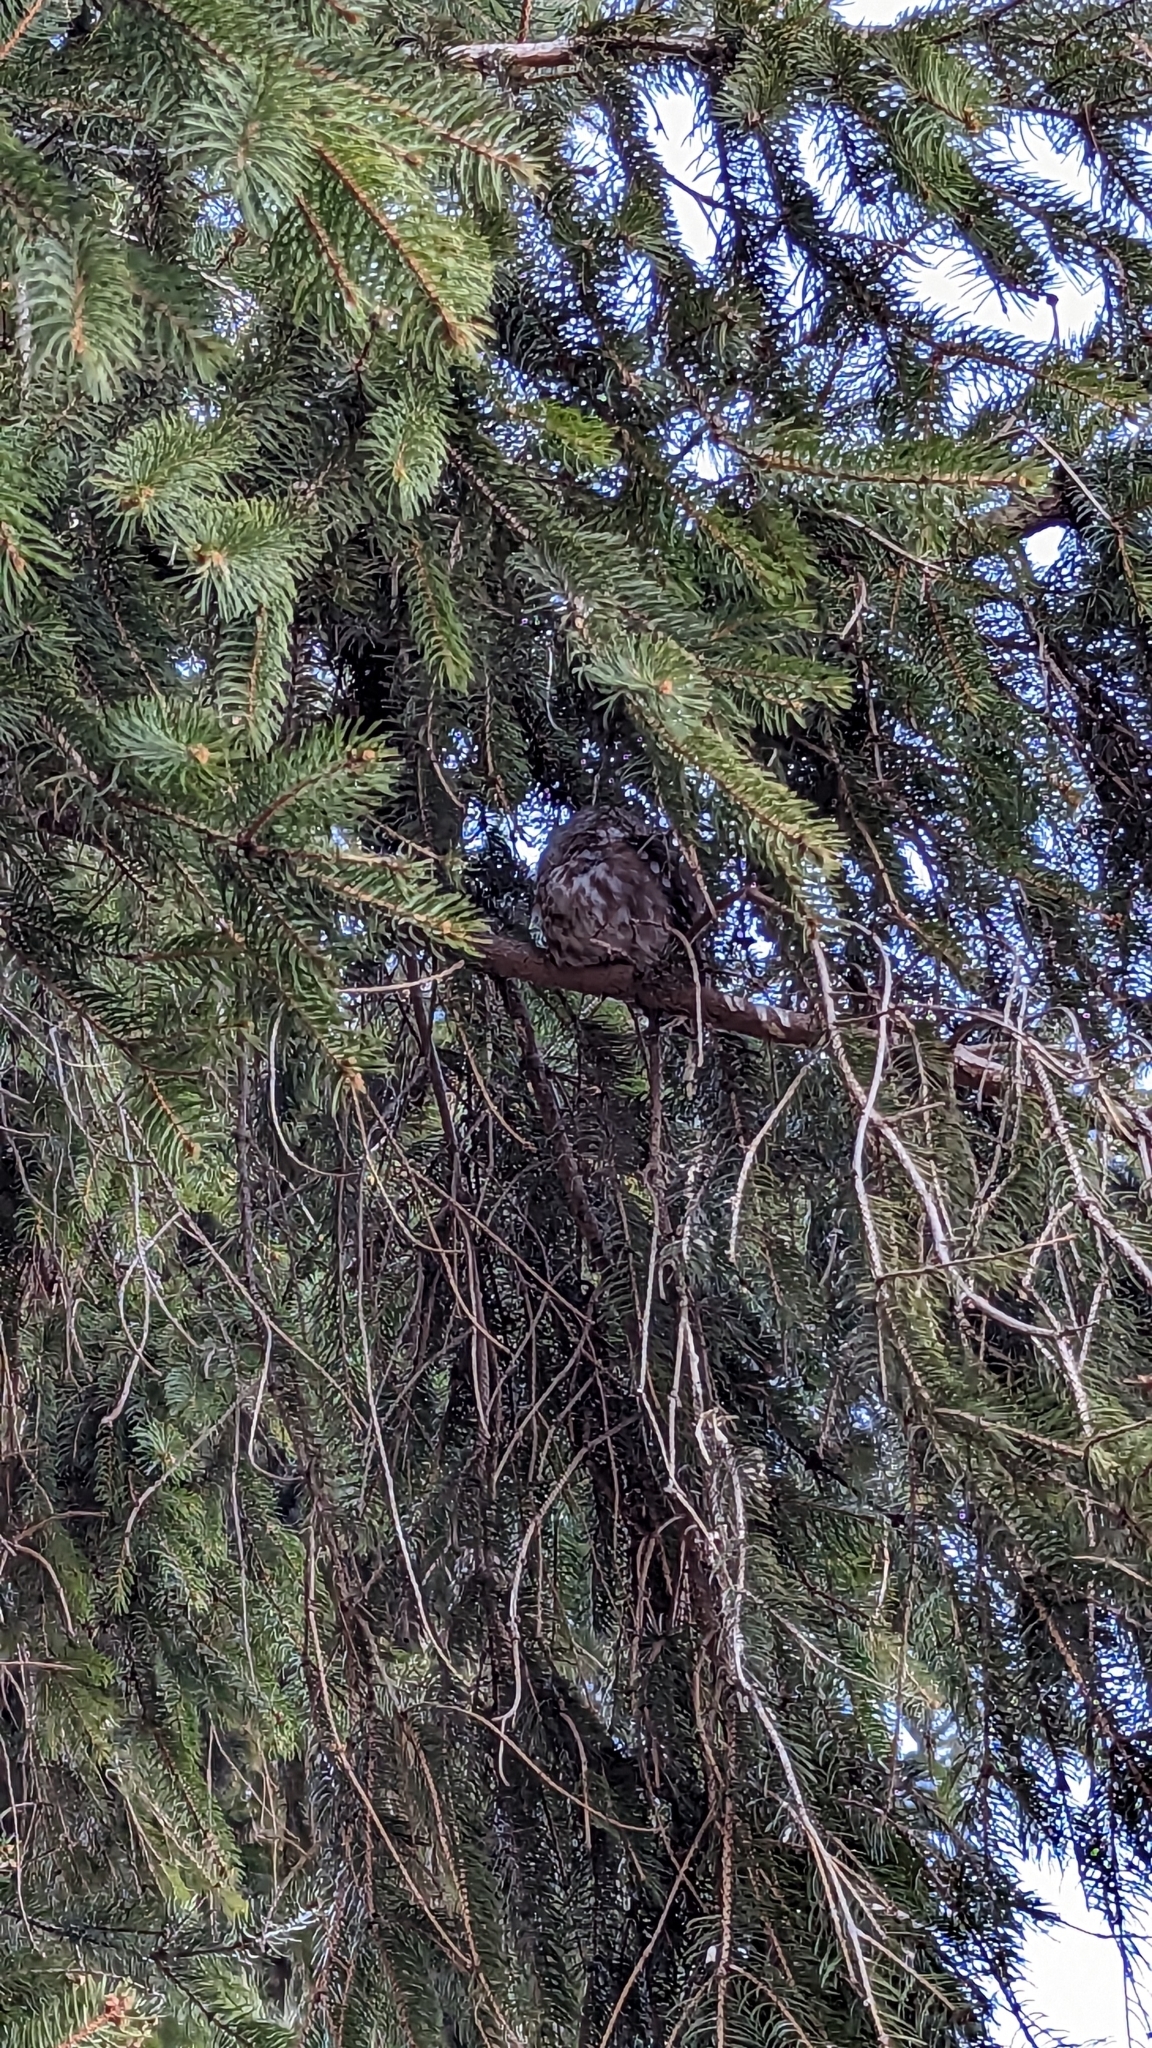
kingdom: Animalia
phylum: Chordata
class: Aves
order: Strigiformes
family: Strigidae
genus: Aegolius
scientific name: Aegolius acadicus
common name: Northern saw-whet owl
